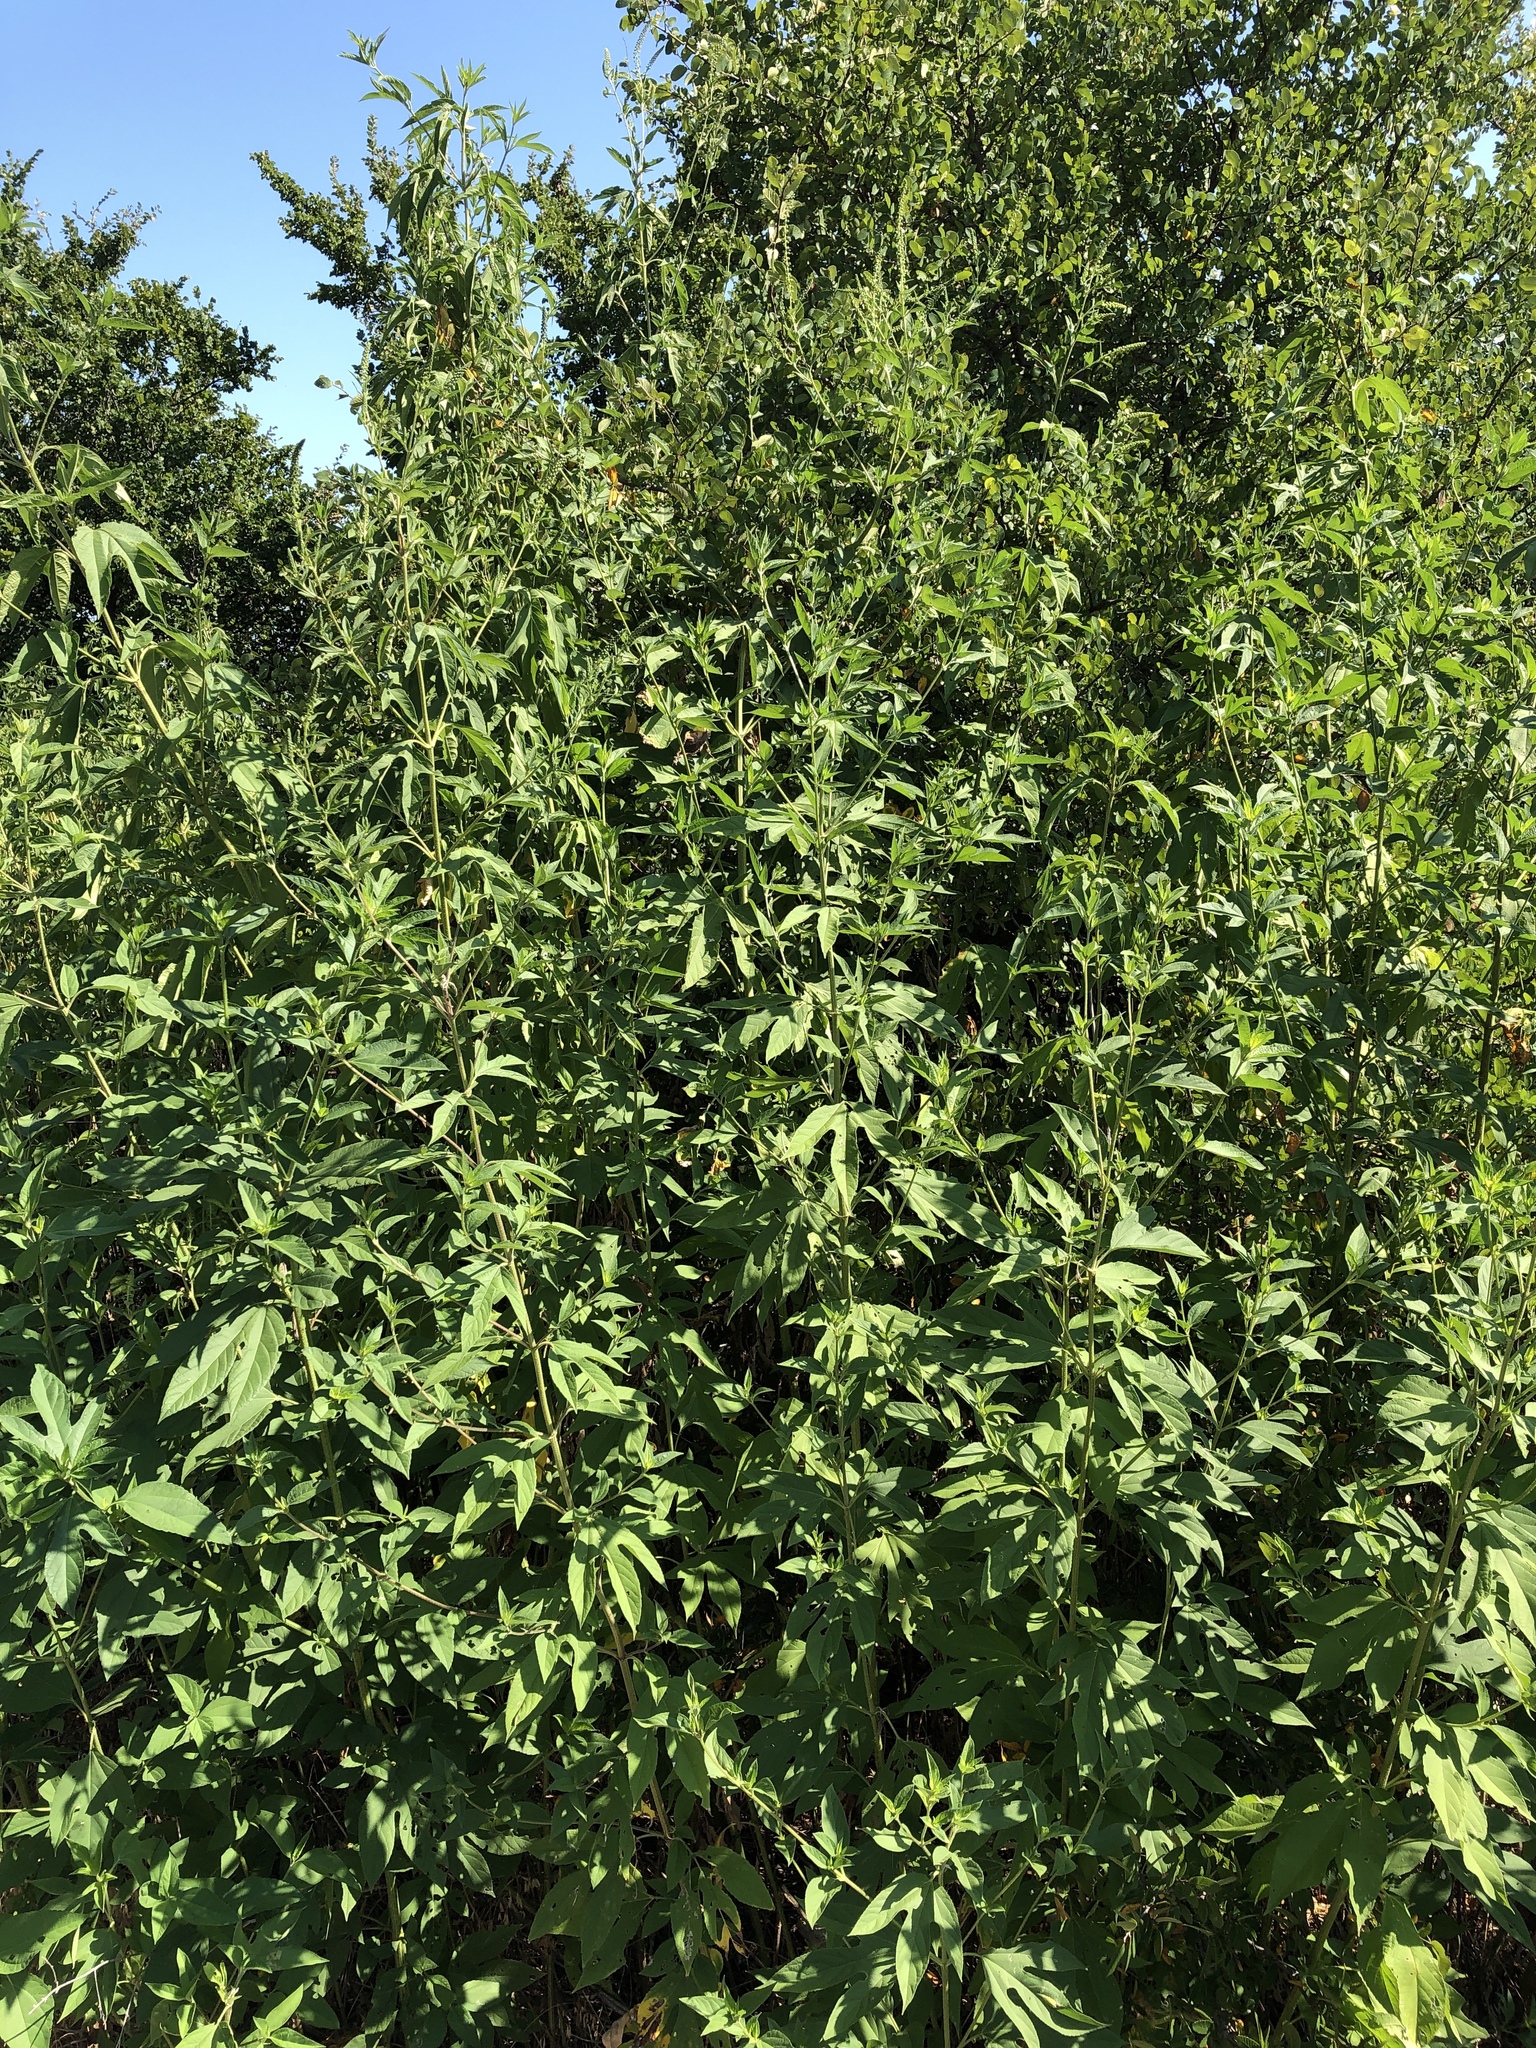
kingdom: Plantae
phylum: Tracheophyta
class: Magnoliopsida
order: Asterales
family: Asteraceae
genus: Ambrosia
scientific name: Ambrosia trifida
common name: Giant ragweed
